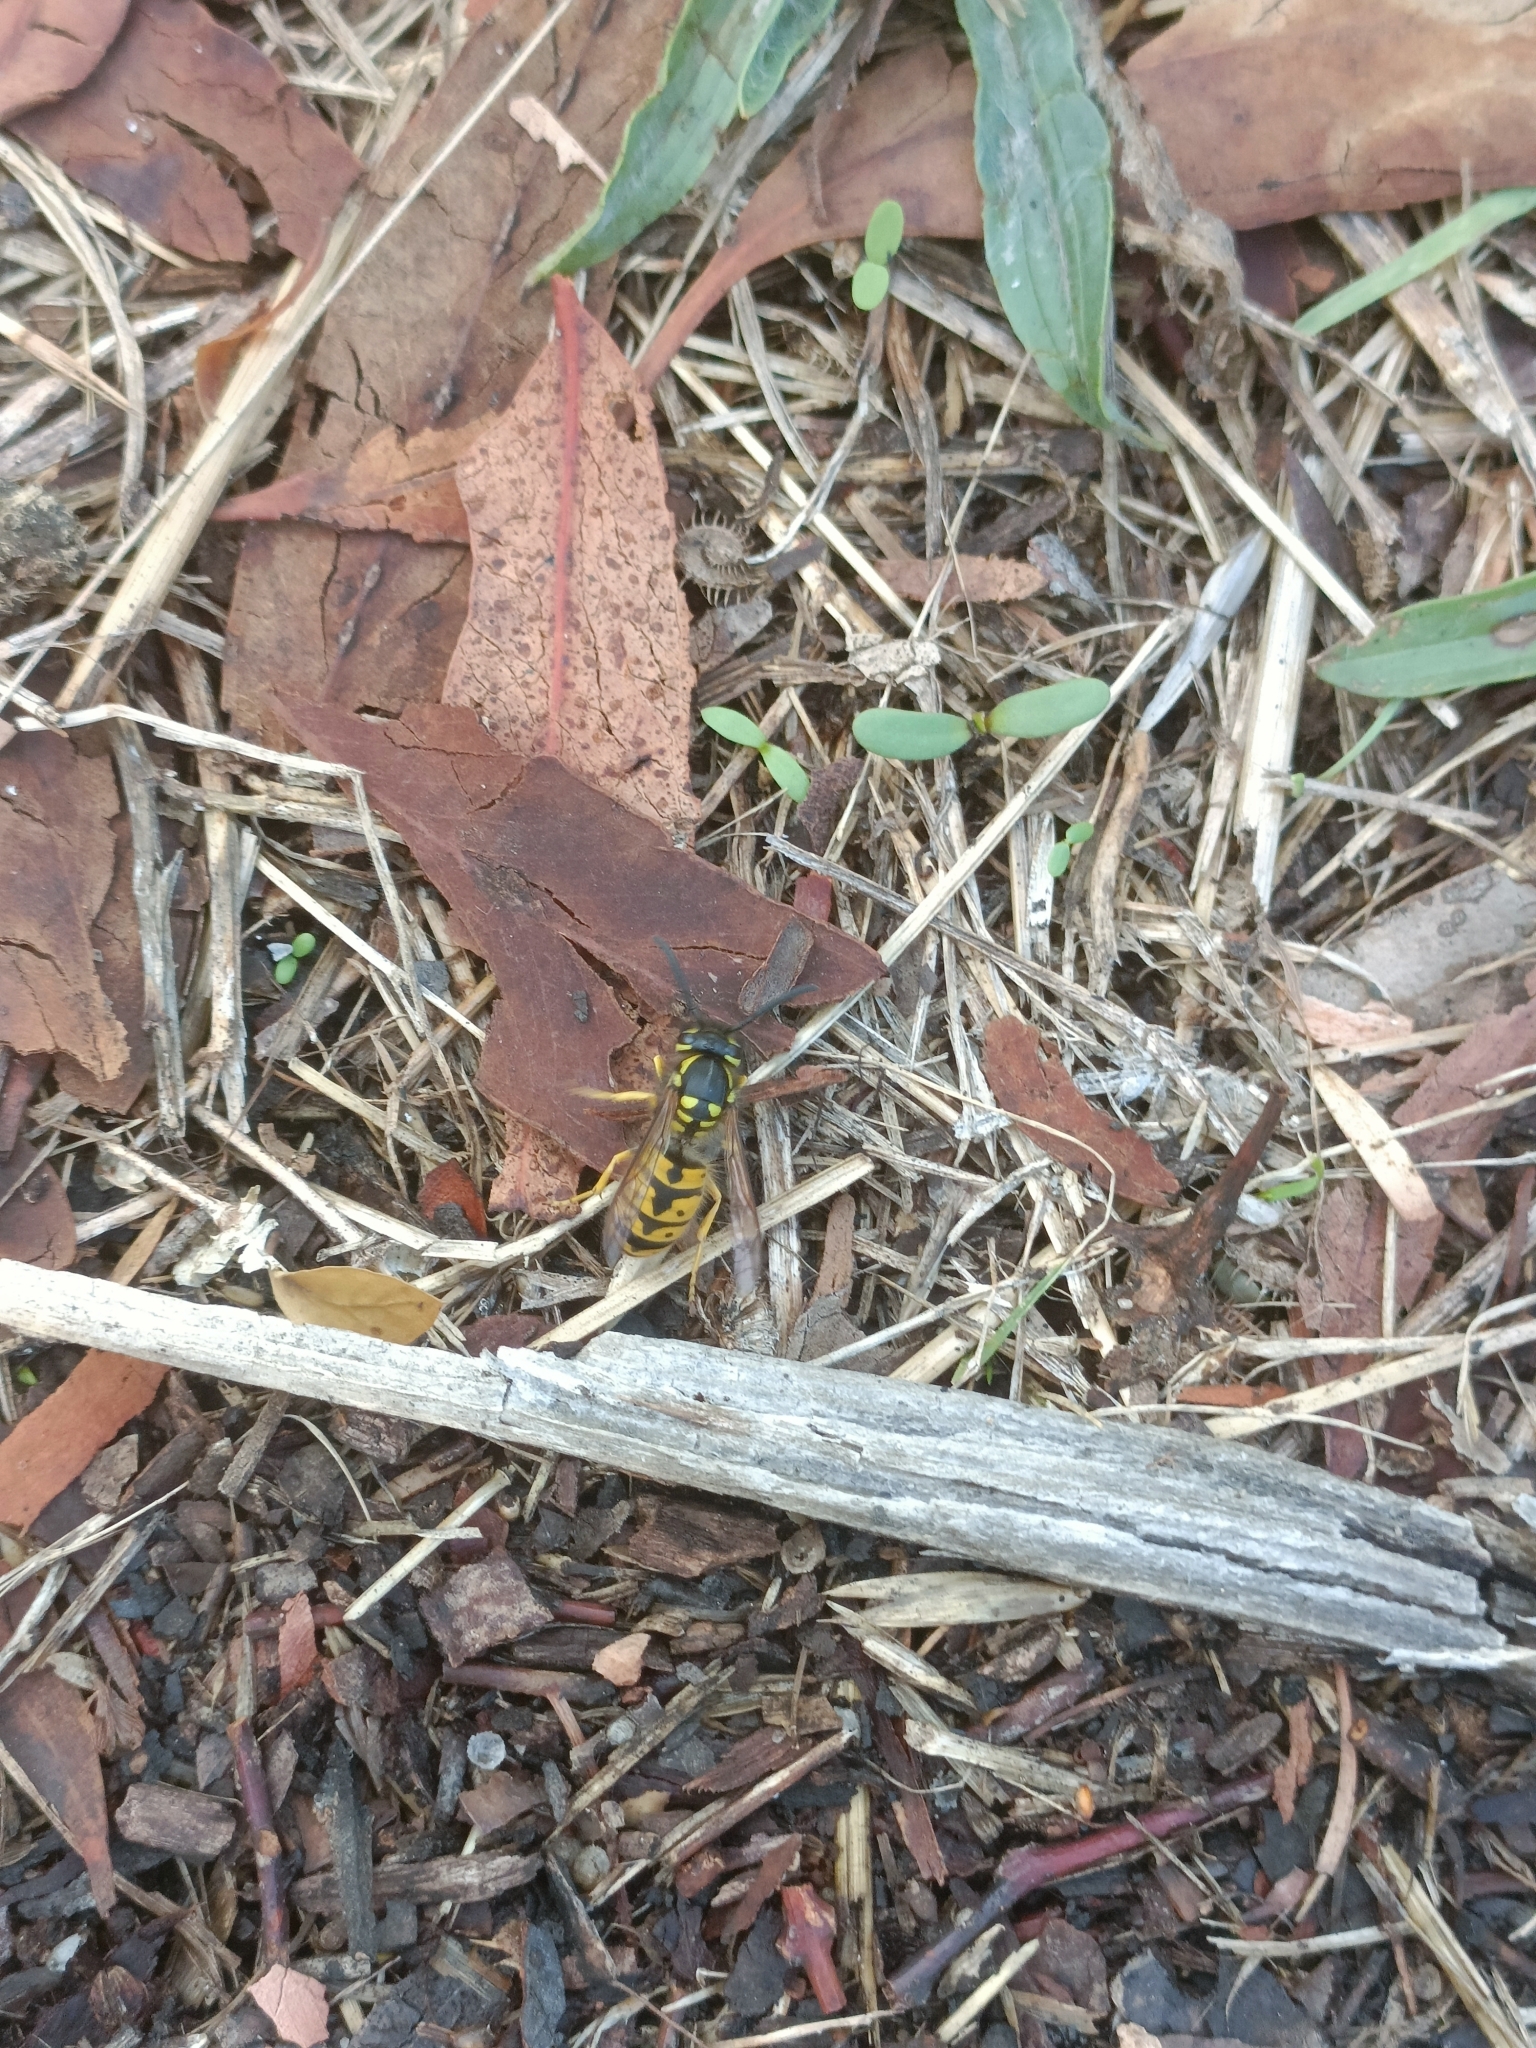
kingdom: Animalia
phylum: Arthropoda
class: Insecta
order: Hymenoptera
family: Vespidae
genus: Vespula
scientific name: Vespula germanica
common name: German wasp
